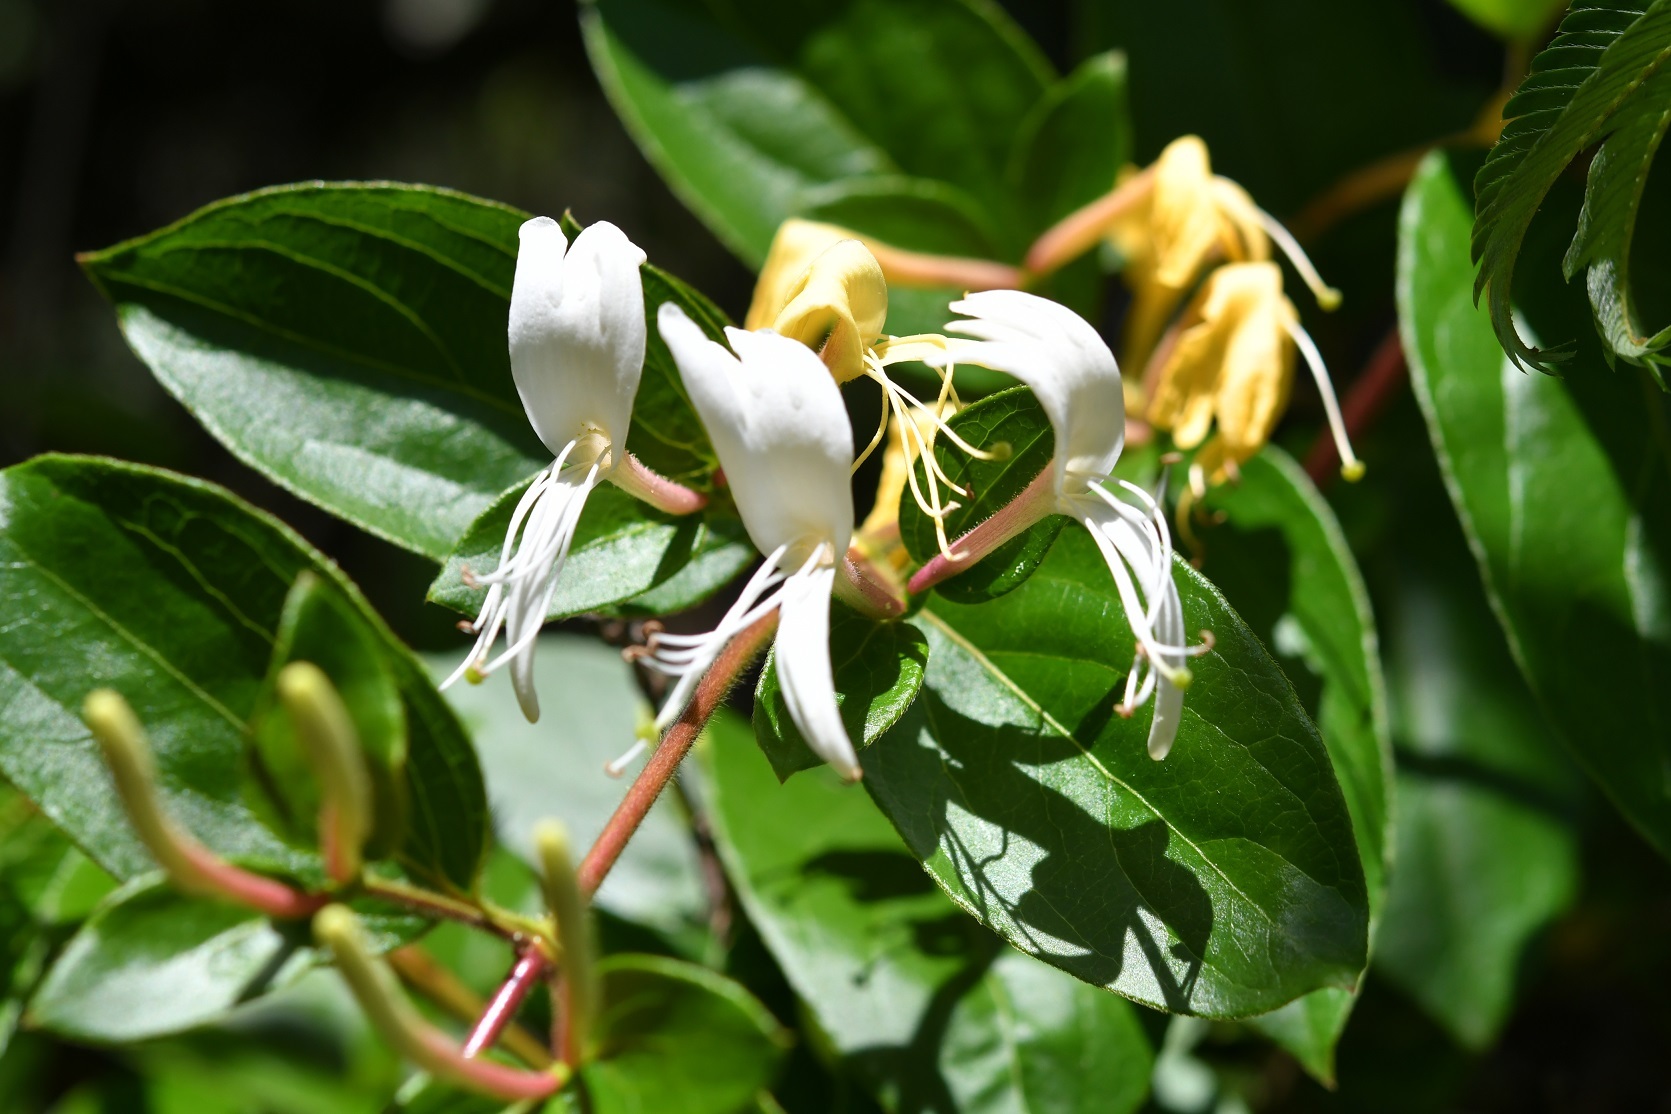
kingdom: Plantae
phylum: Tracheophyta
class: Magnoliopsida
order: Dipsacales
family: Caprifoliaceae
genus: Lonicera
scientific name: Lonicera japonica
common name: Japanese honeysuckle
